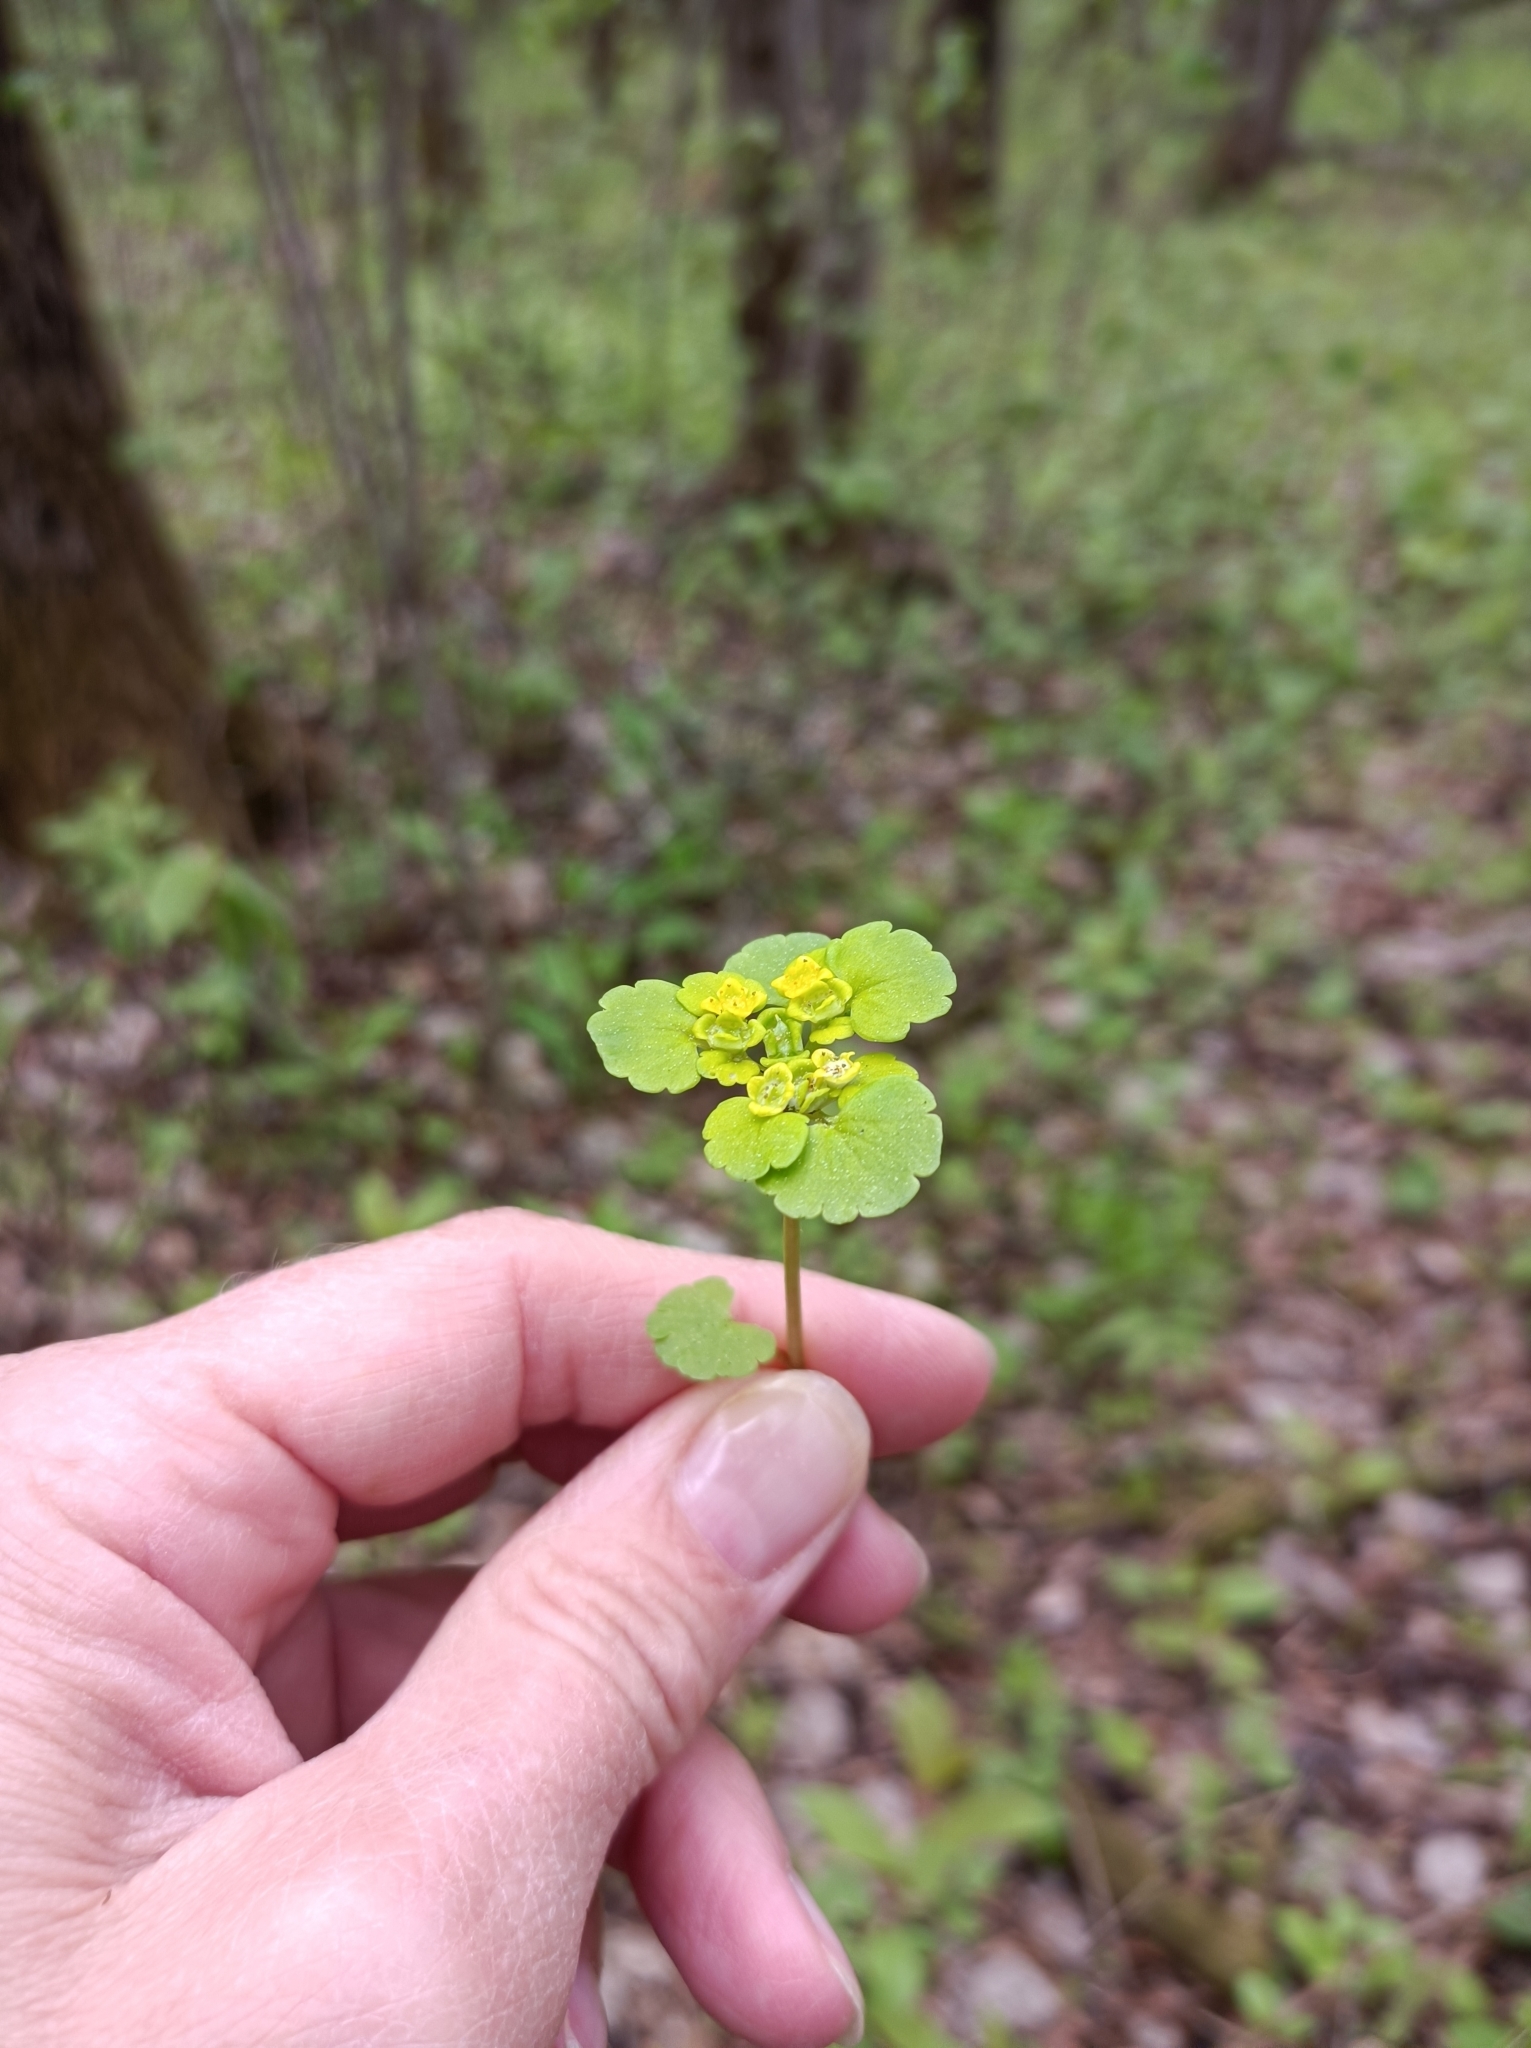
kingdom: Plantae
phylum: Tracheophyta
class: Magnoliopsida
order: Saxifragales
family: Saxifragaceae
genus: Chrysosplenium
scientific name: Chrysosplenium alternifolium
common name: Alternate-leaved golden-saxifrage
